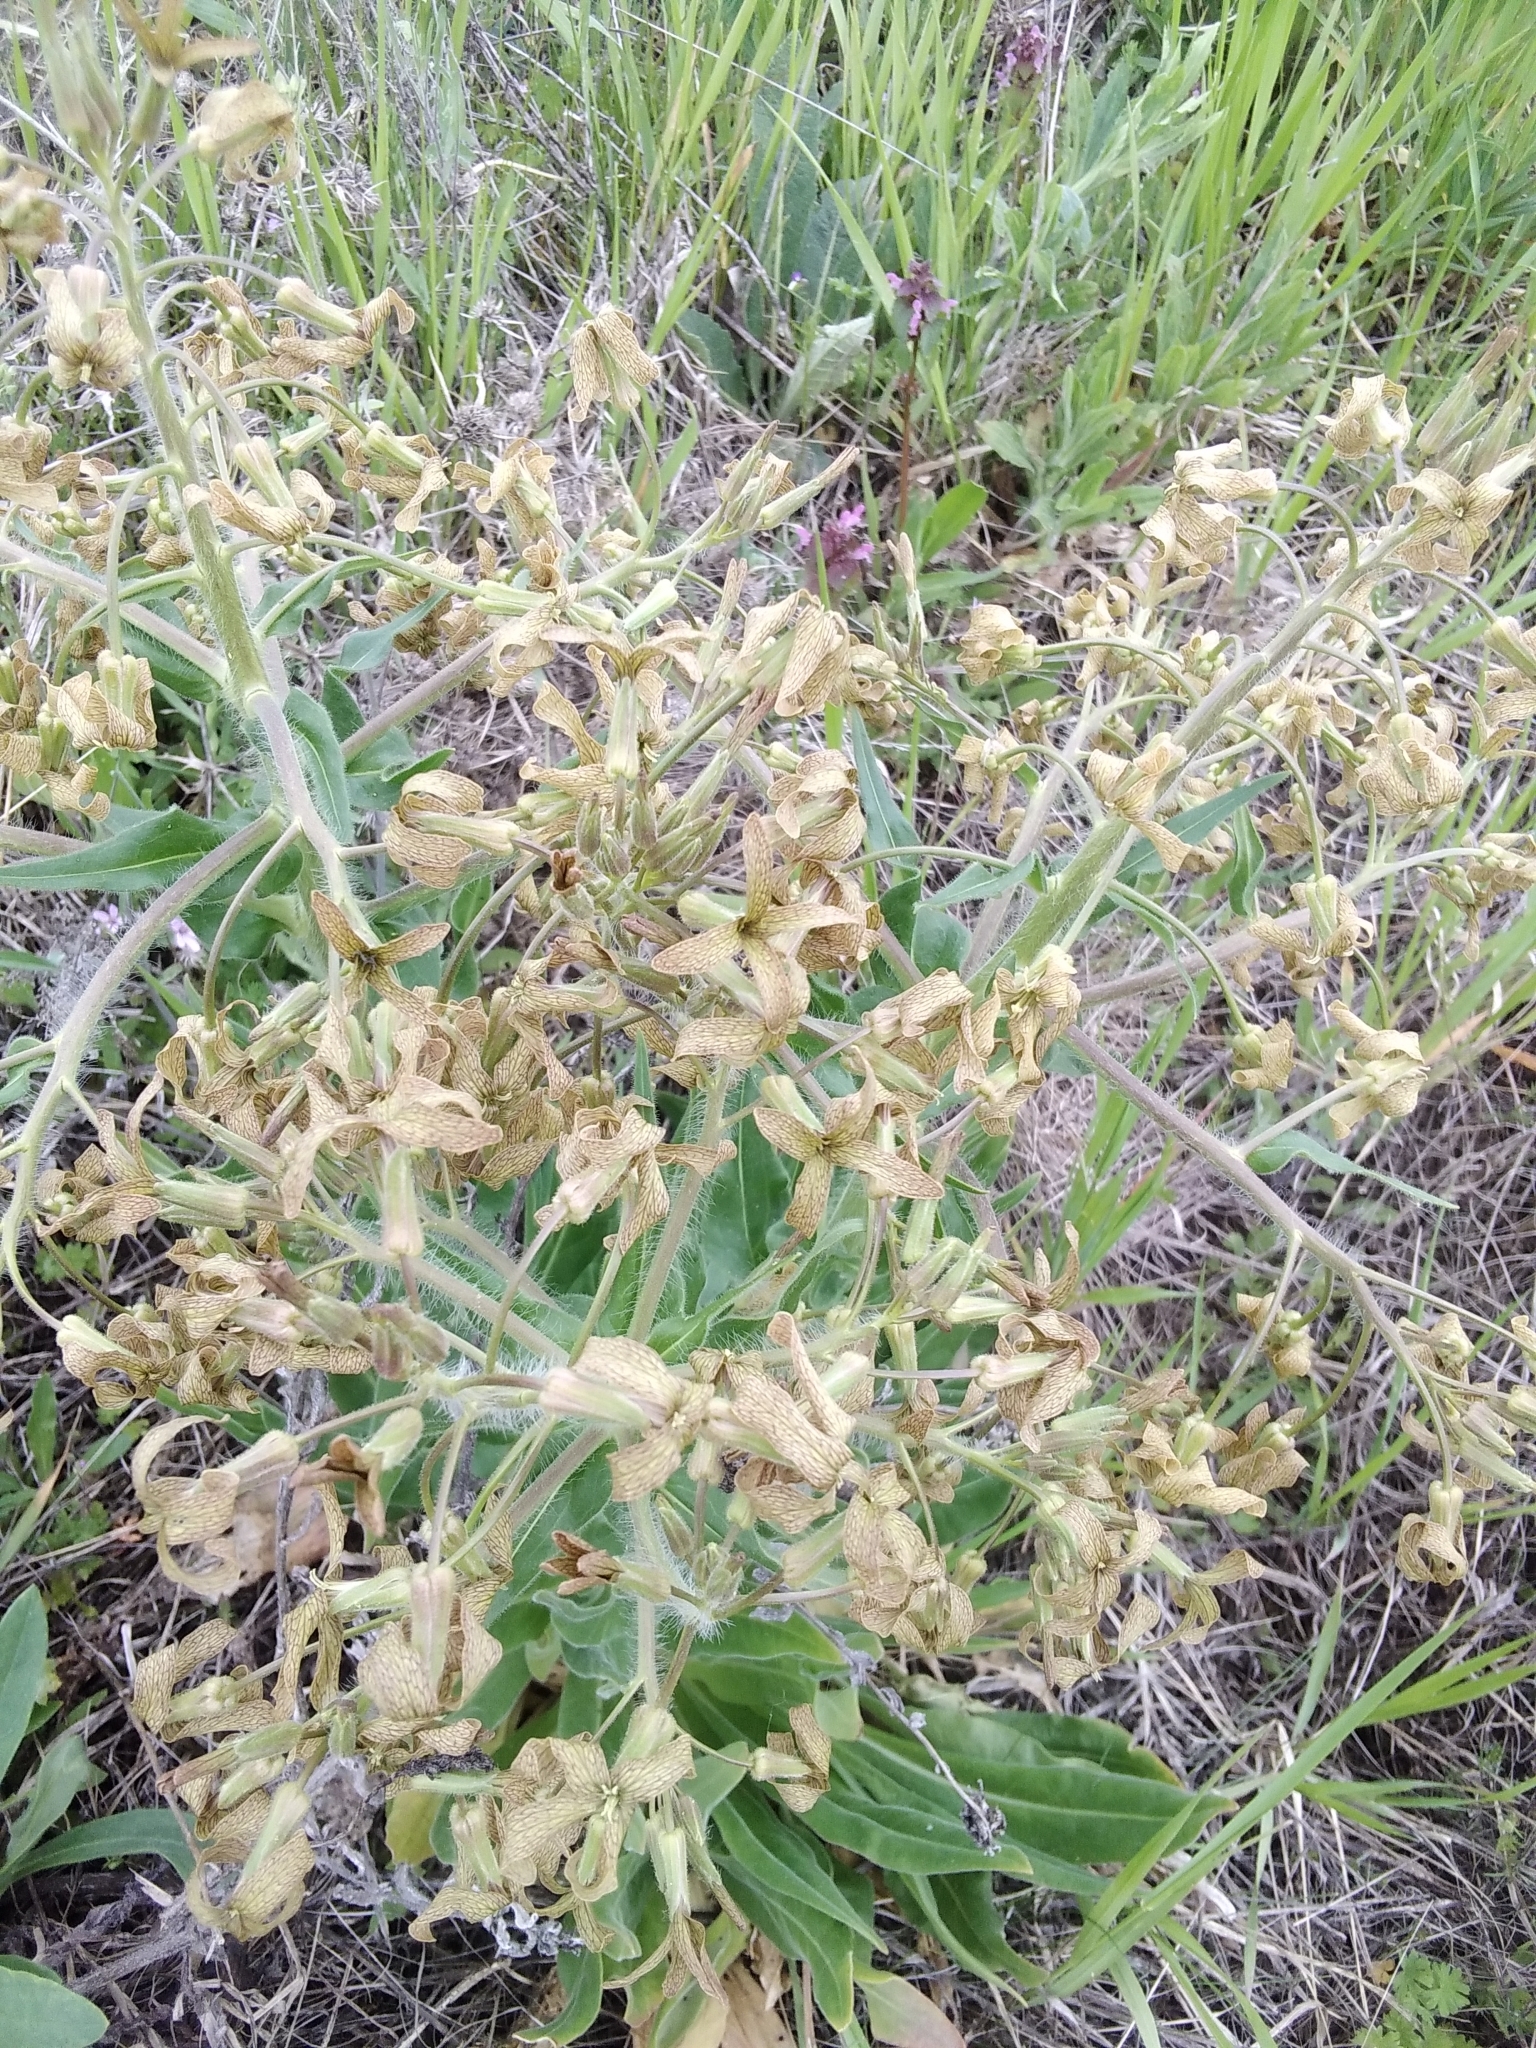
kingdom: Plantae
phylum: Tracheophyta
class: Magnoliopsida
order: Brassicales
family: Brassicaceae
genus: Hesperis
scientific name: Hesperis tristis
